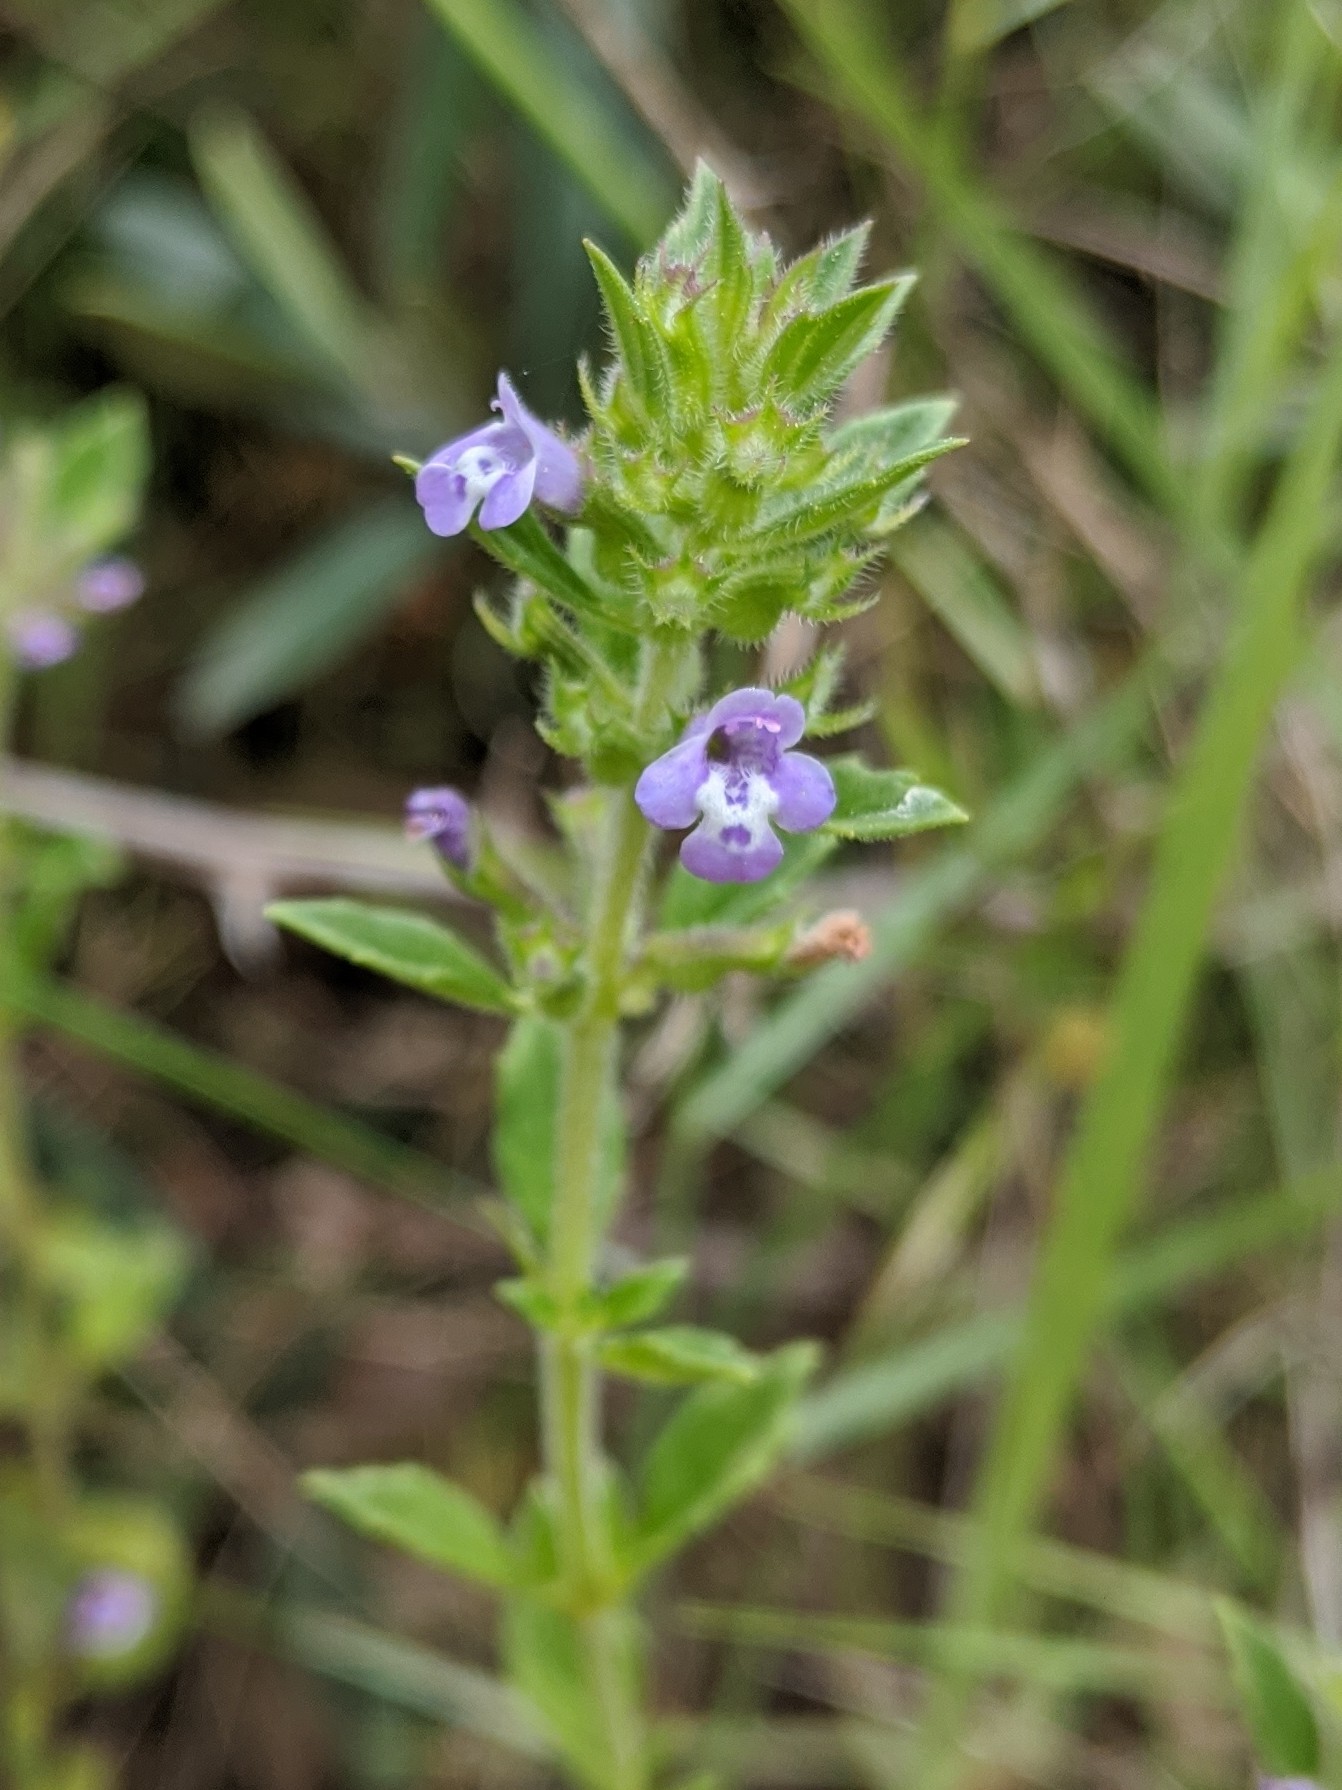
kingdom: Plantae
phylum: Tracheophyta
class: Magnoliopsida
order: Lamiales
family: Lamiaceae
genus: Clinopodium
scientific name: Clinopodium acinos
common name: Basil thyme
